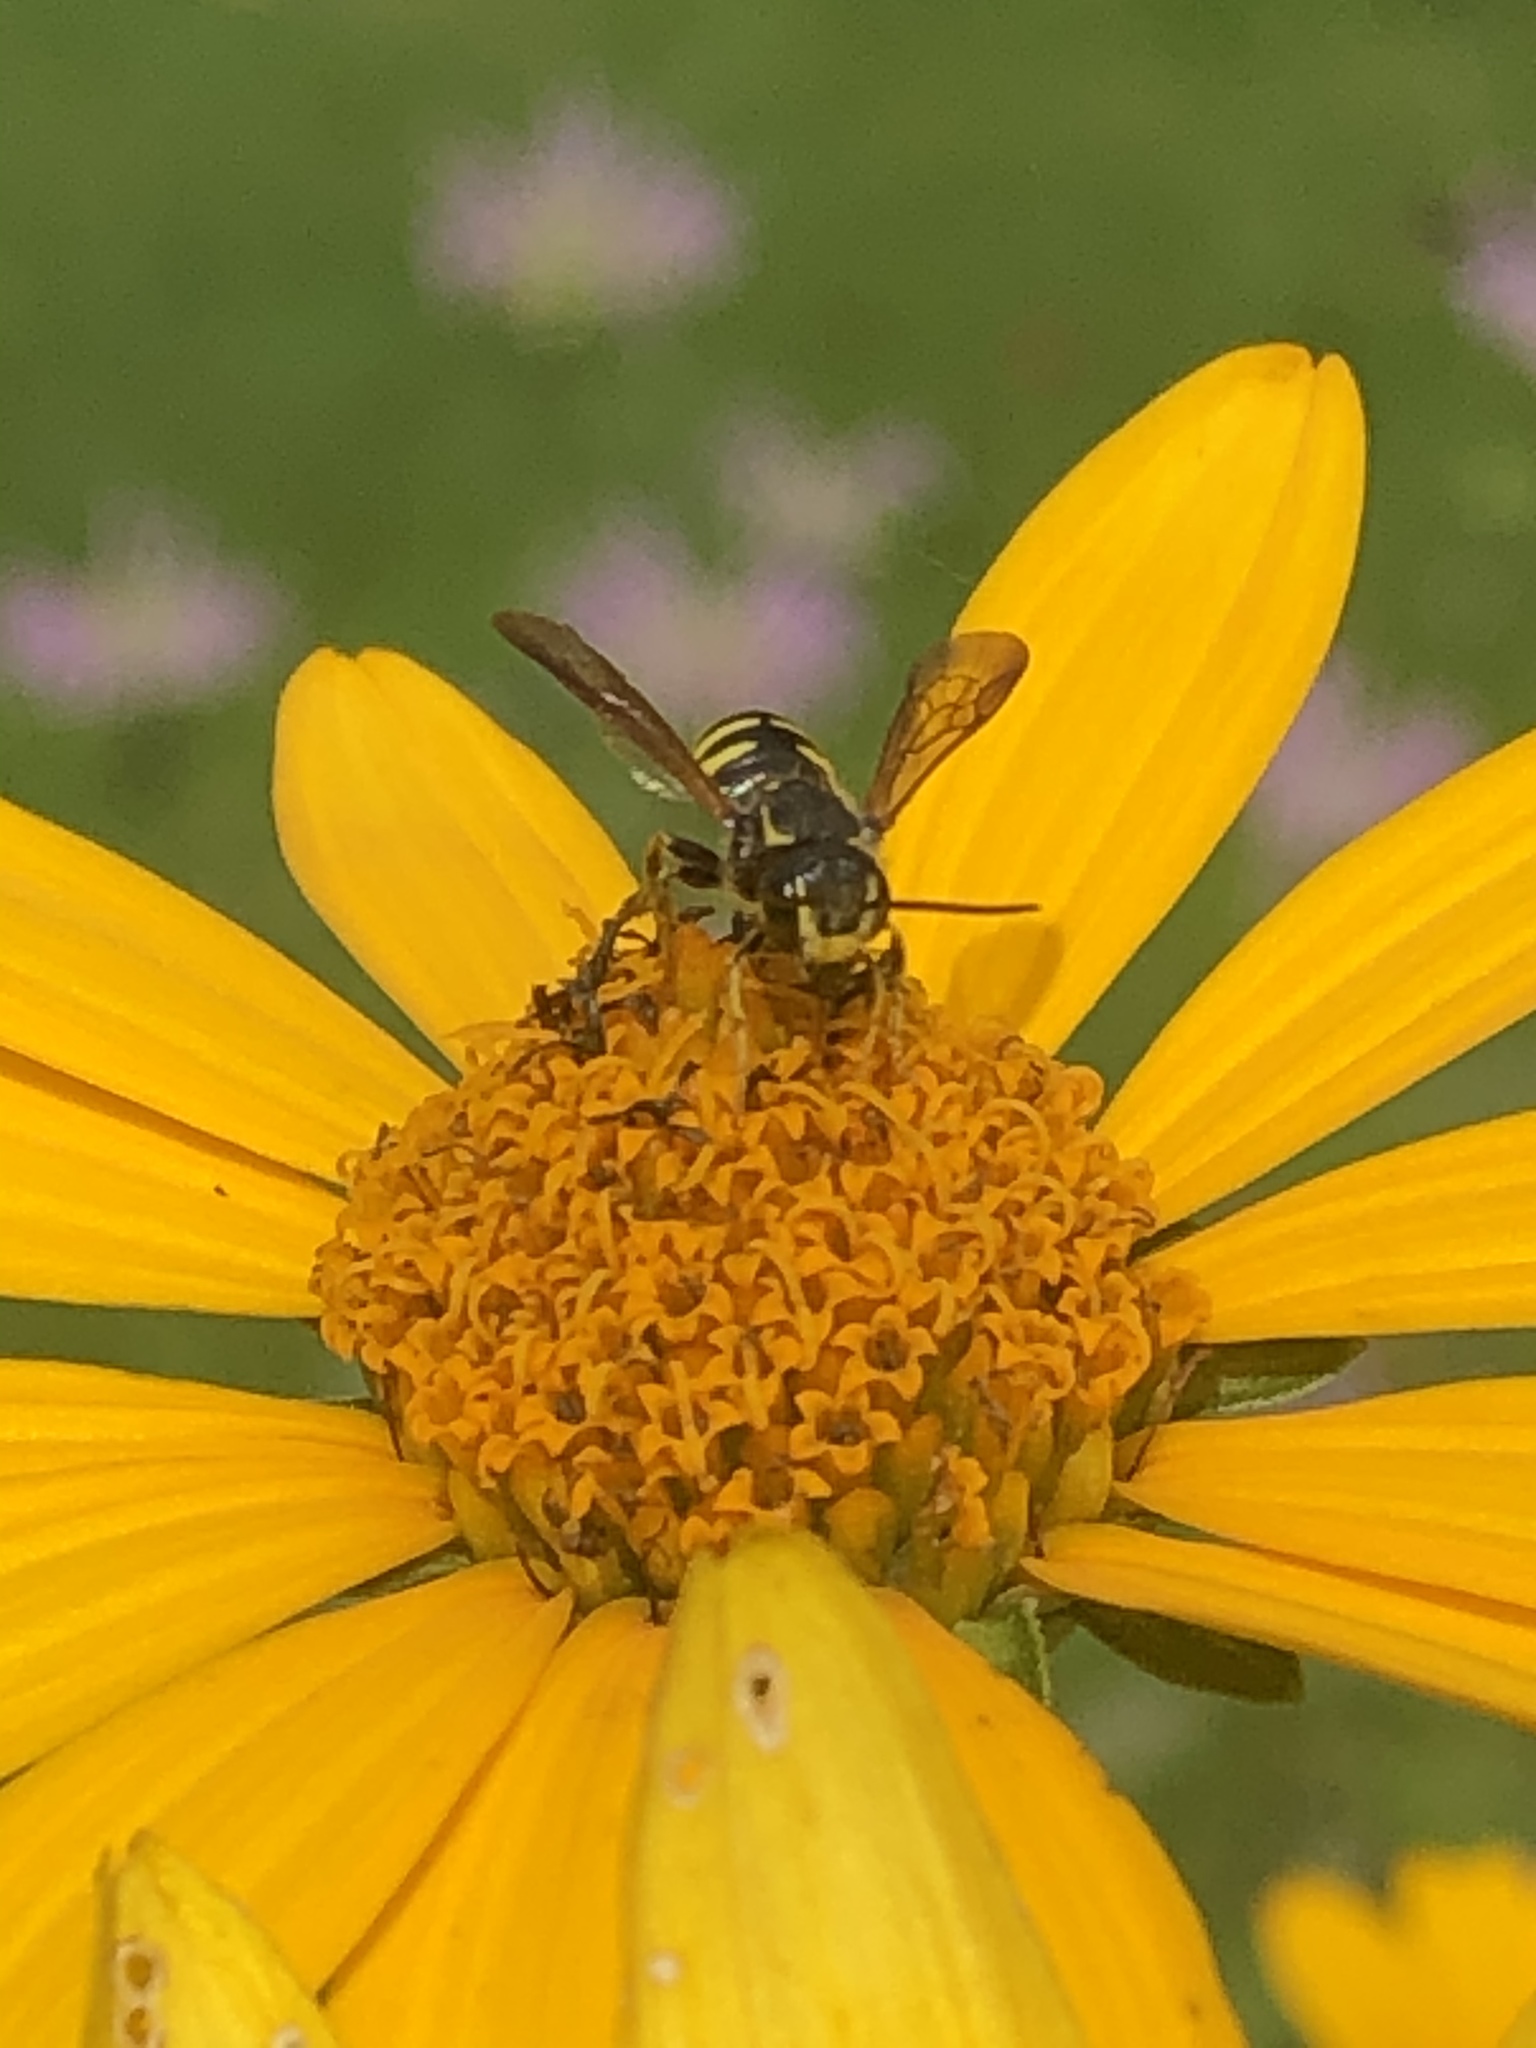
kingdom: Animalia
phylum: Arthropoda
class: Insecta
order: Hymenoptera
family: Megachilidae
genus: Paranthidium
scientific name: Paranthidium jugatorium
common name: Sunflower burrowing-resin bee
